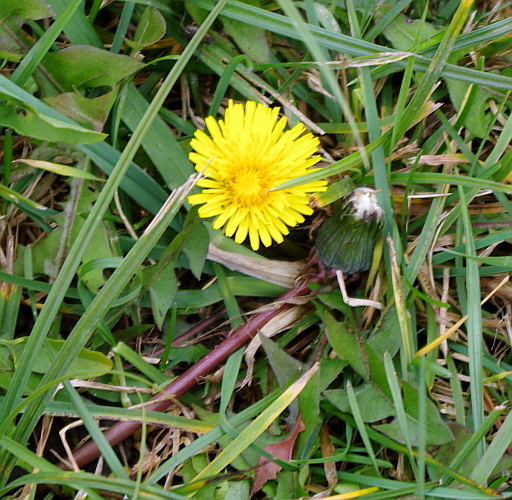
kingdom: Plantae
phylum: Tracheophyta
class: Magnoliopsida
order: Asterales
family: Asteraceae
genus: Taraxacum
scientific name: Taraxacum officinale
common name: Common dandelion
